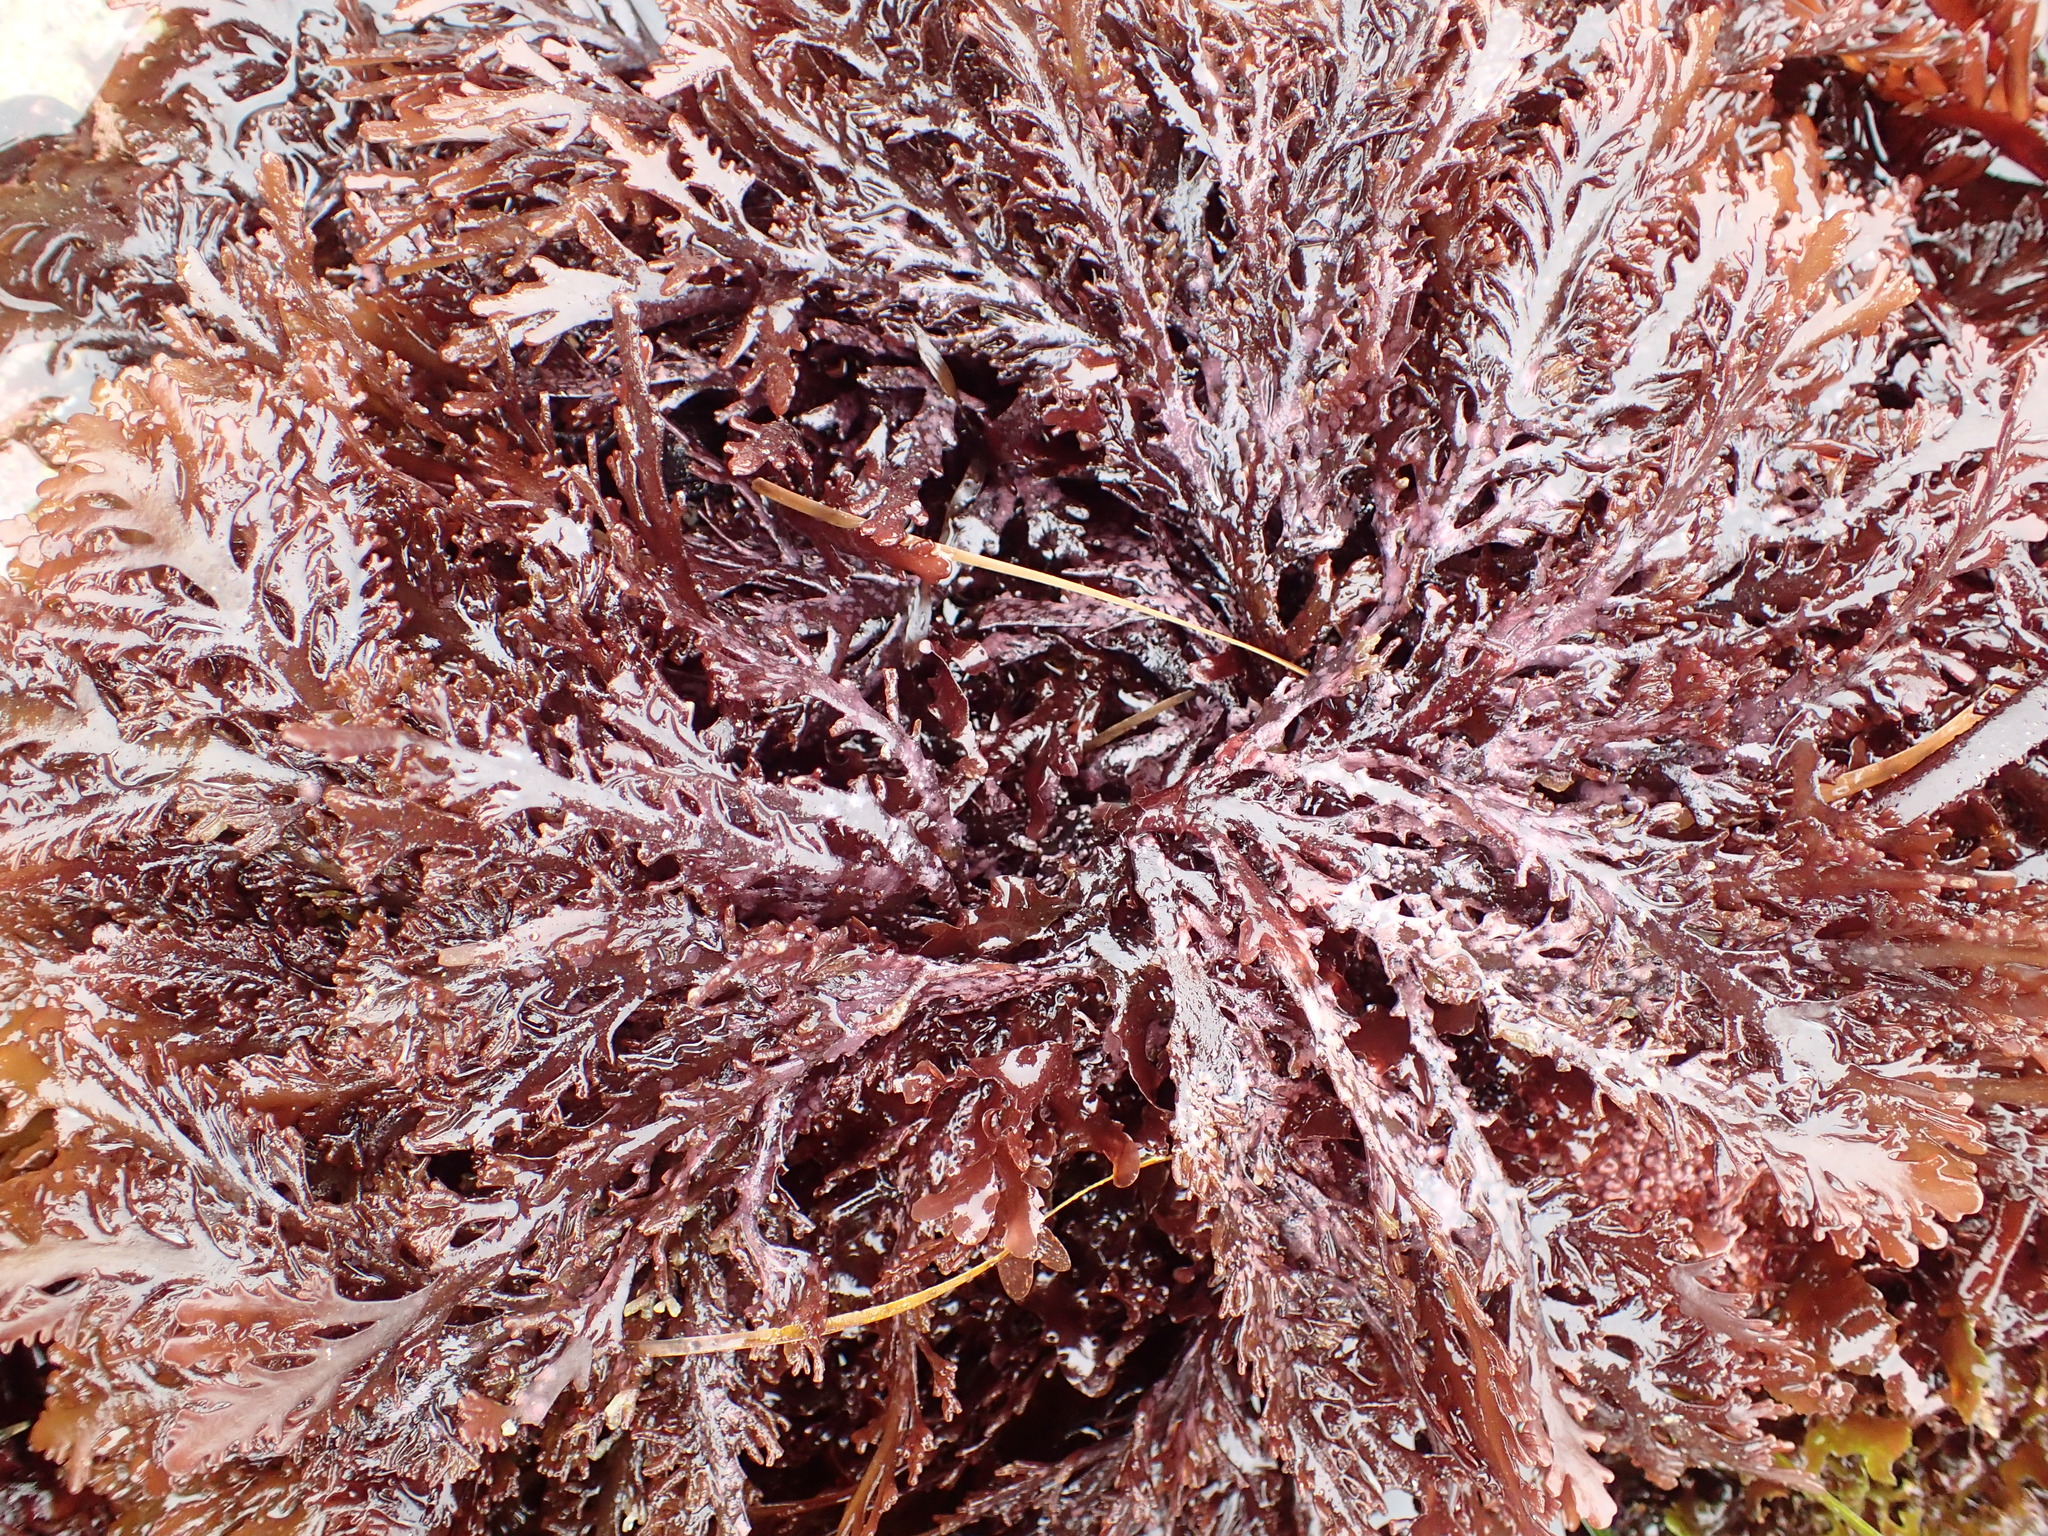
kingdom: Plantae
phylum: Rhodophyta
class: Florideophyceae
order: Ceramiales
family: Rhodomelaceae
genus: Osmundea
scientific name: Osmundea spectabilis
